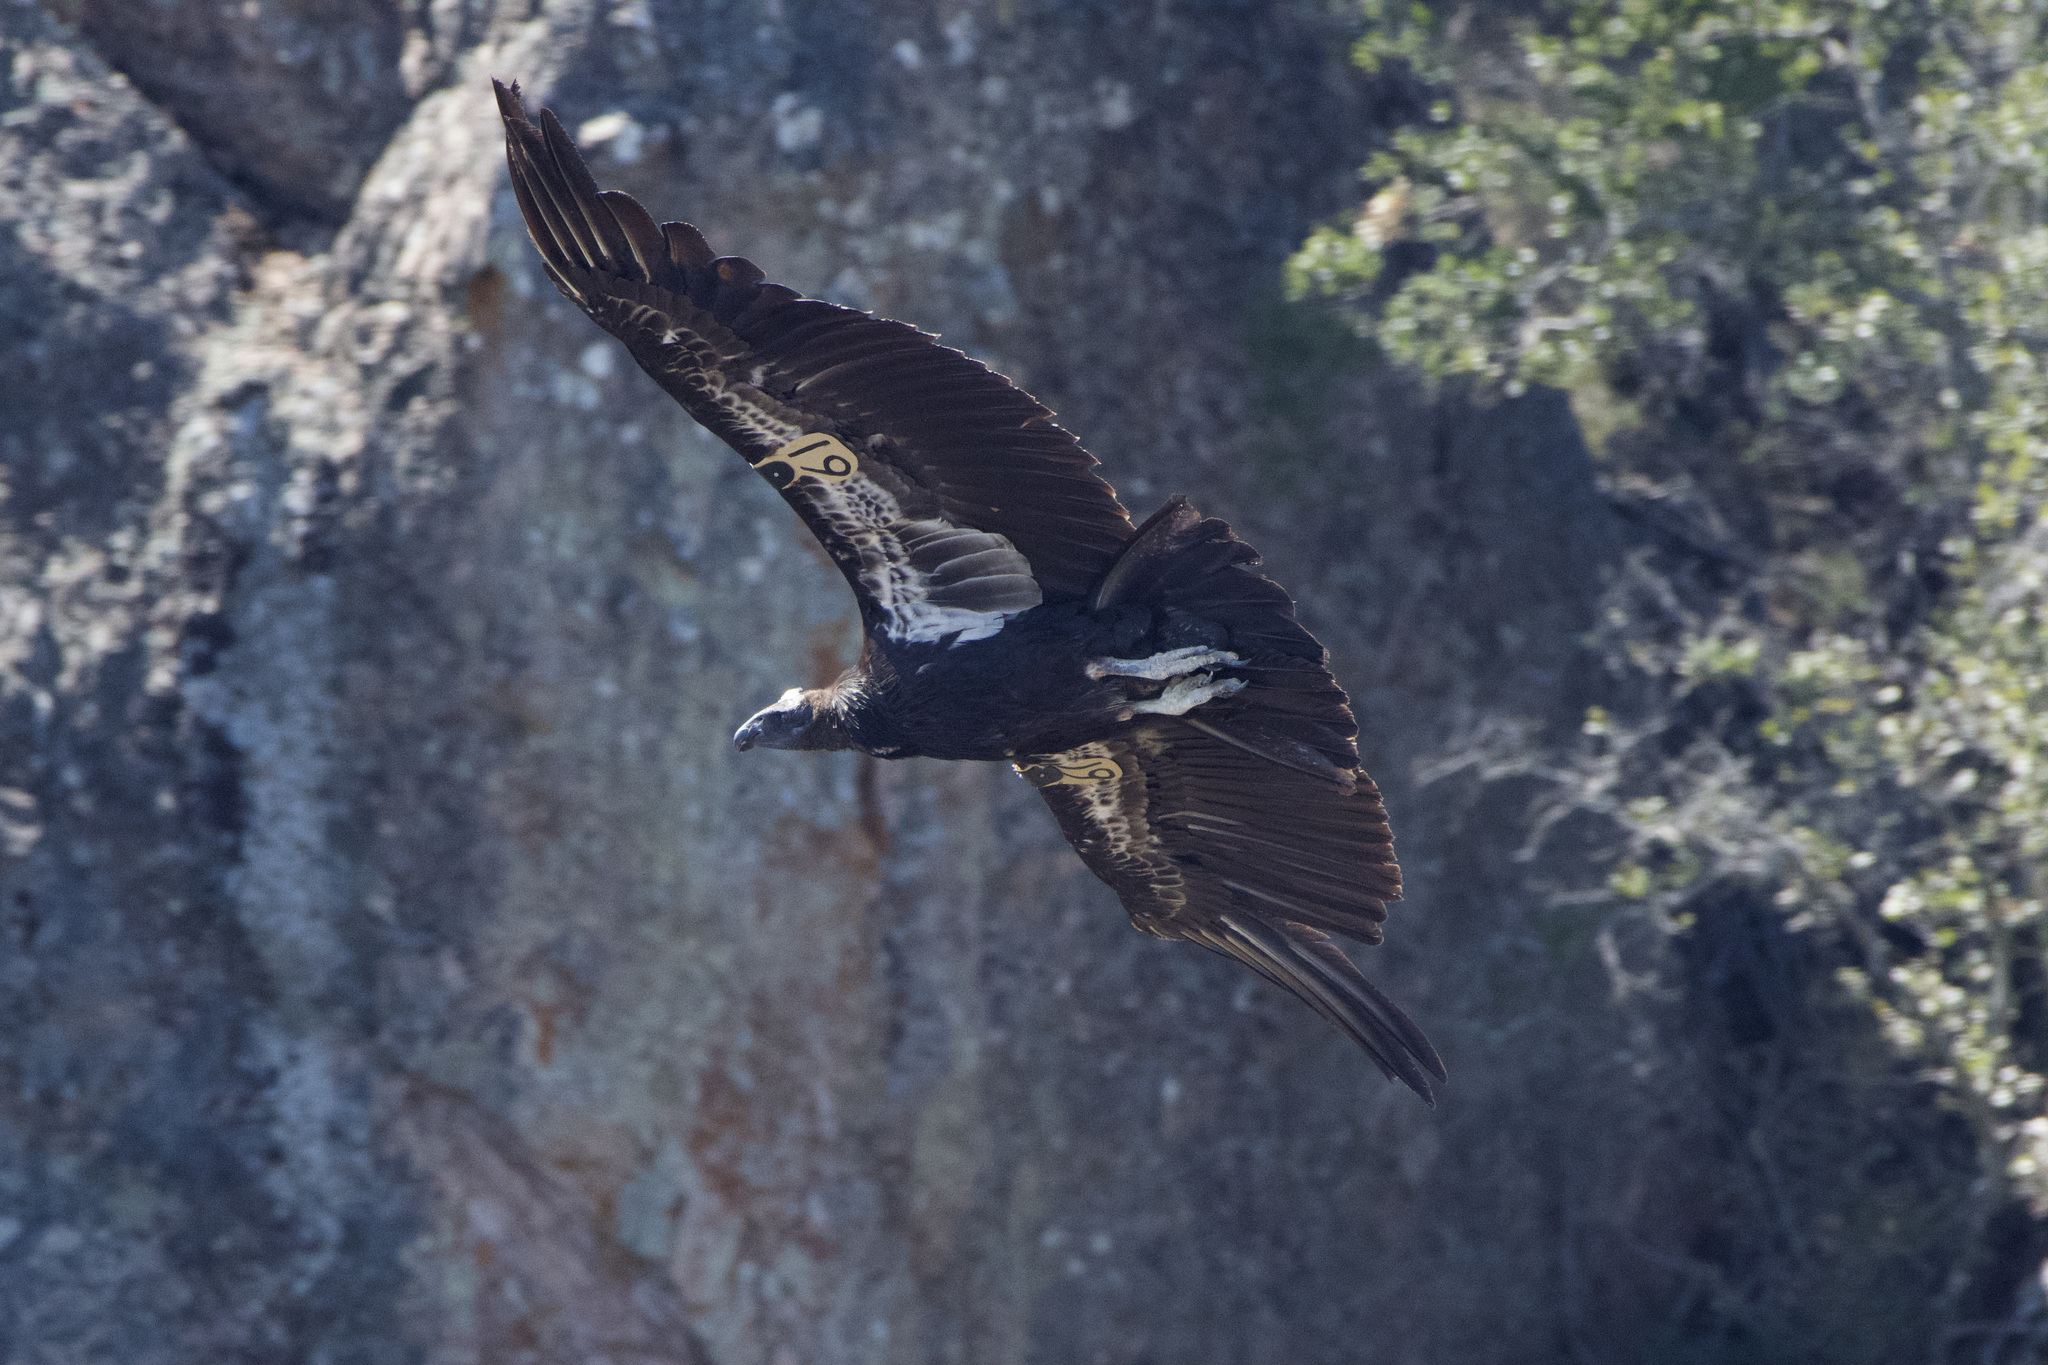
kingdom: Animalia
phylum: Chordata
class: Aves
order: Accipitriformes
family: Cathartidae
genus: Gymnogyps
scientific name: Gymnogyps californianus
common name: California condor
